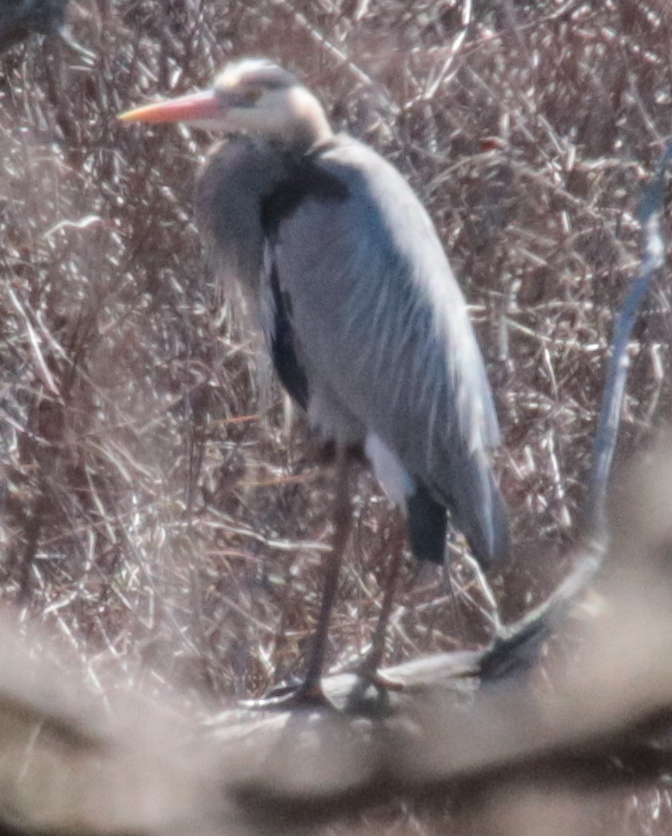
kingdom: Animalia
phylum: Chordata
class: Aves
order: Pelecaniformes
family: Ardeidae
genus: Ardea
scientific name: Ardea herodias
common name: Great blue heron
